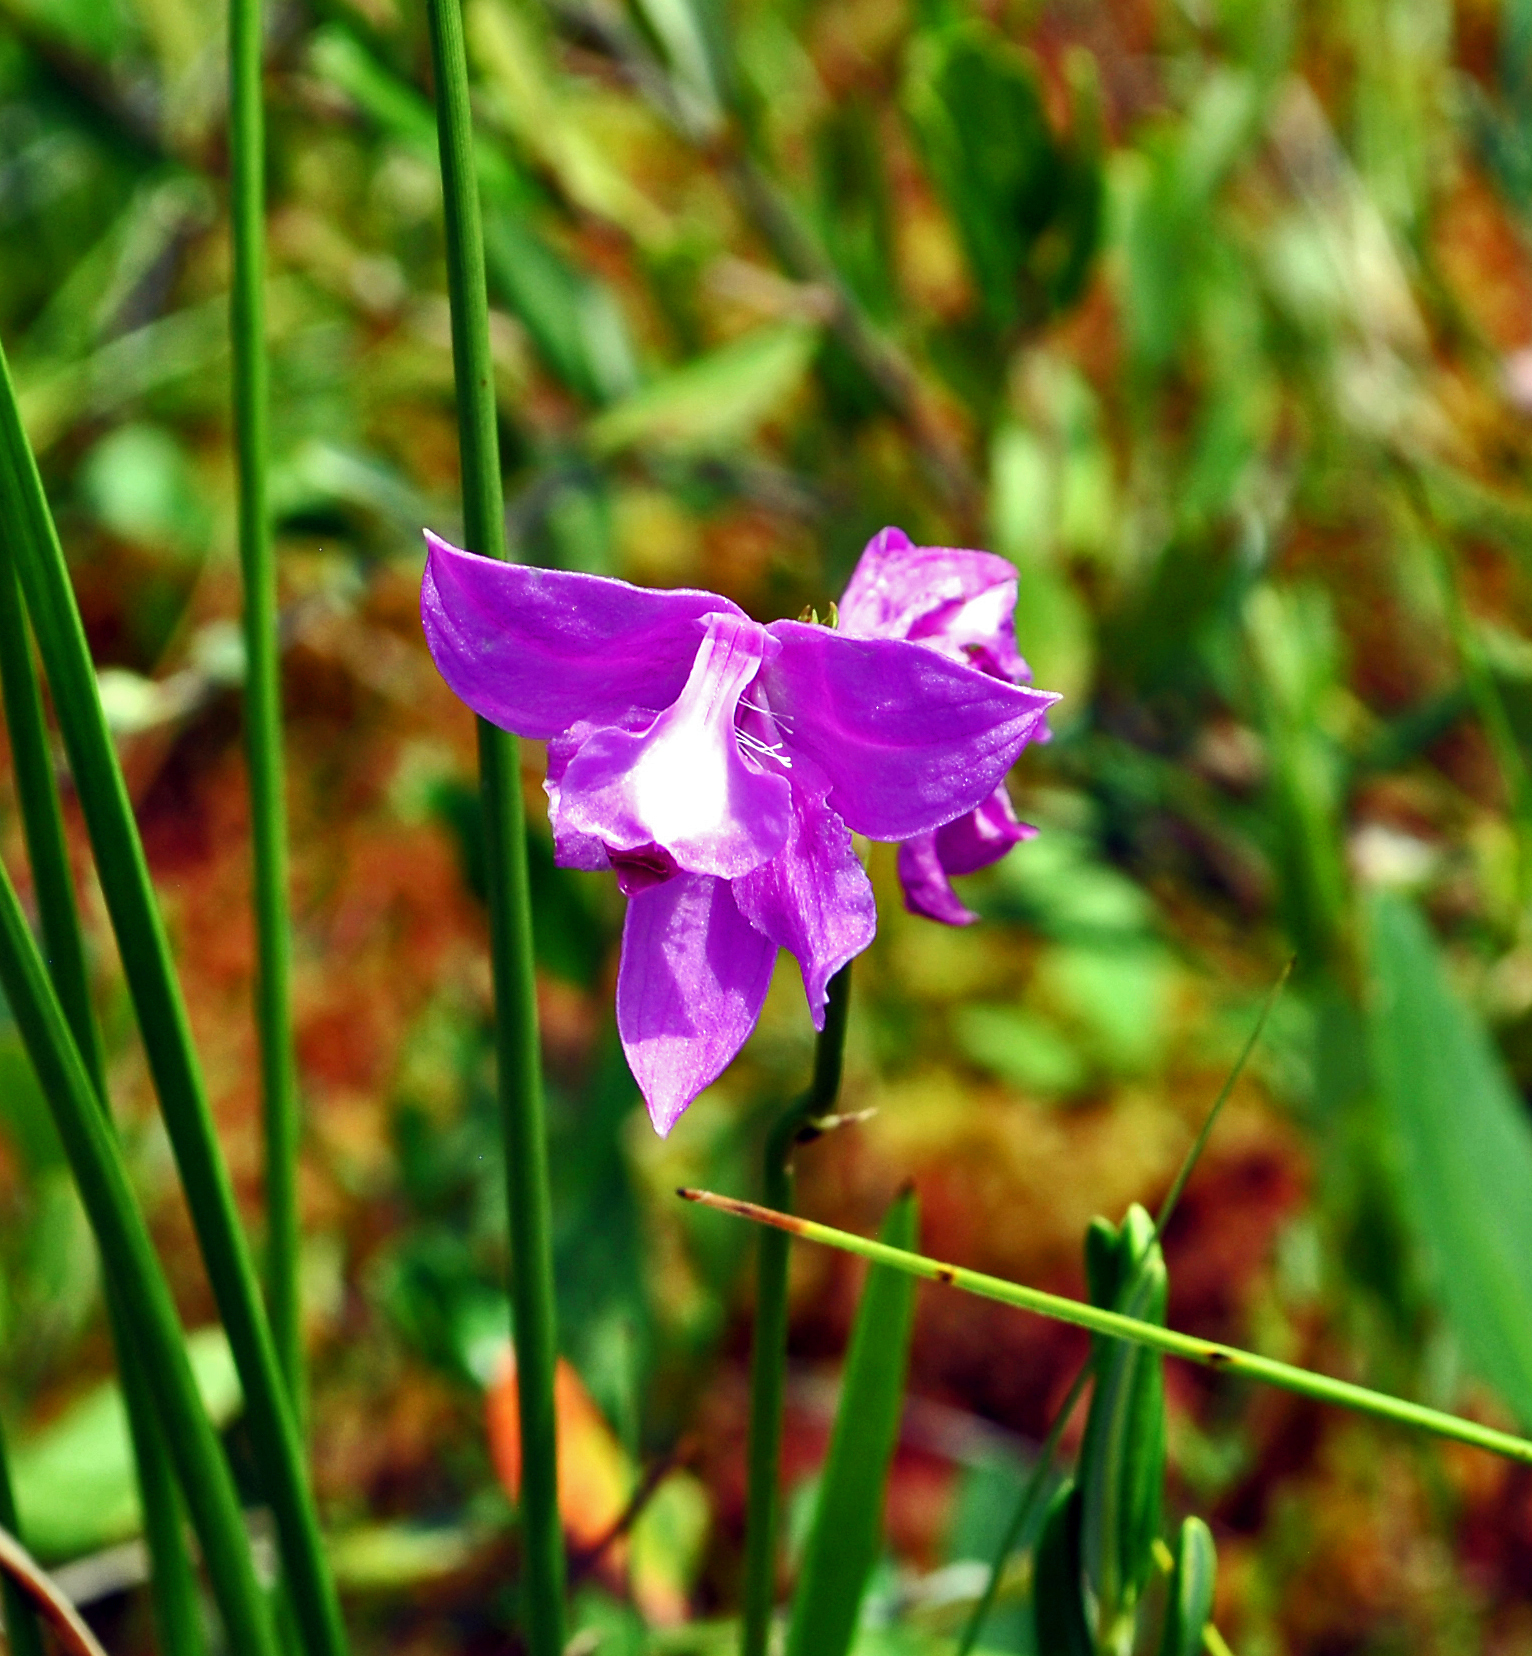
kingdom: Plantae
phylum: Tracheophyta
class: Liliopsida
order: Asparagales
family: Orchidaceae
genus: Calopogon
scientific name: Calopogon tuberosus
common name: Grass-pink
